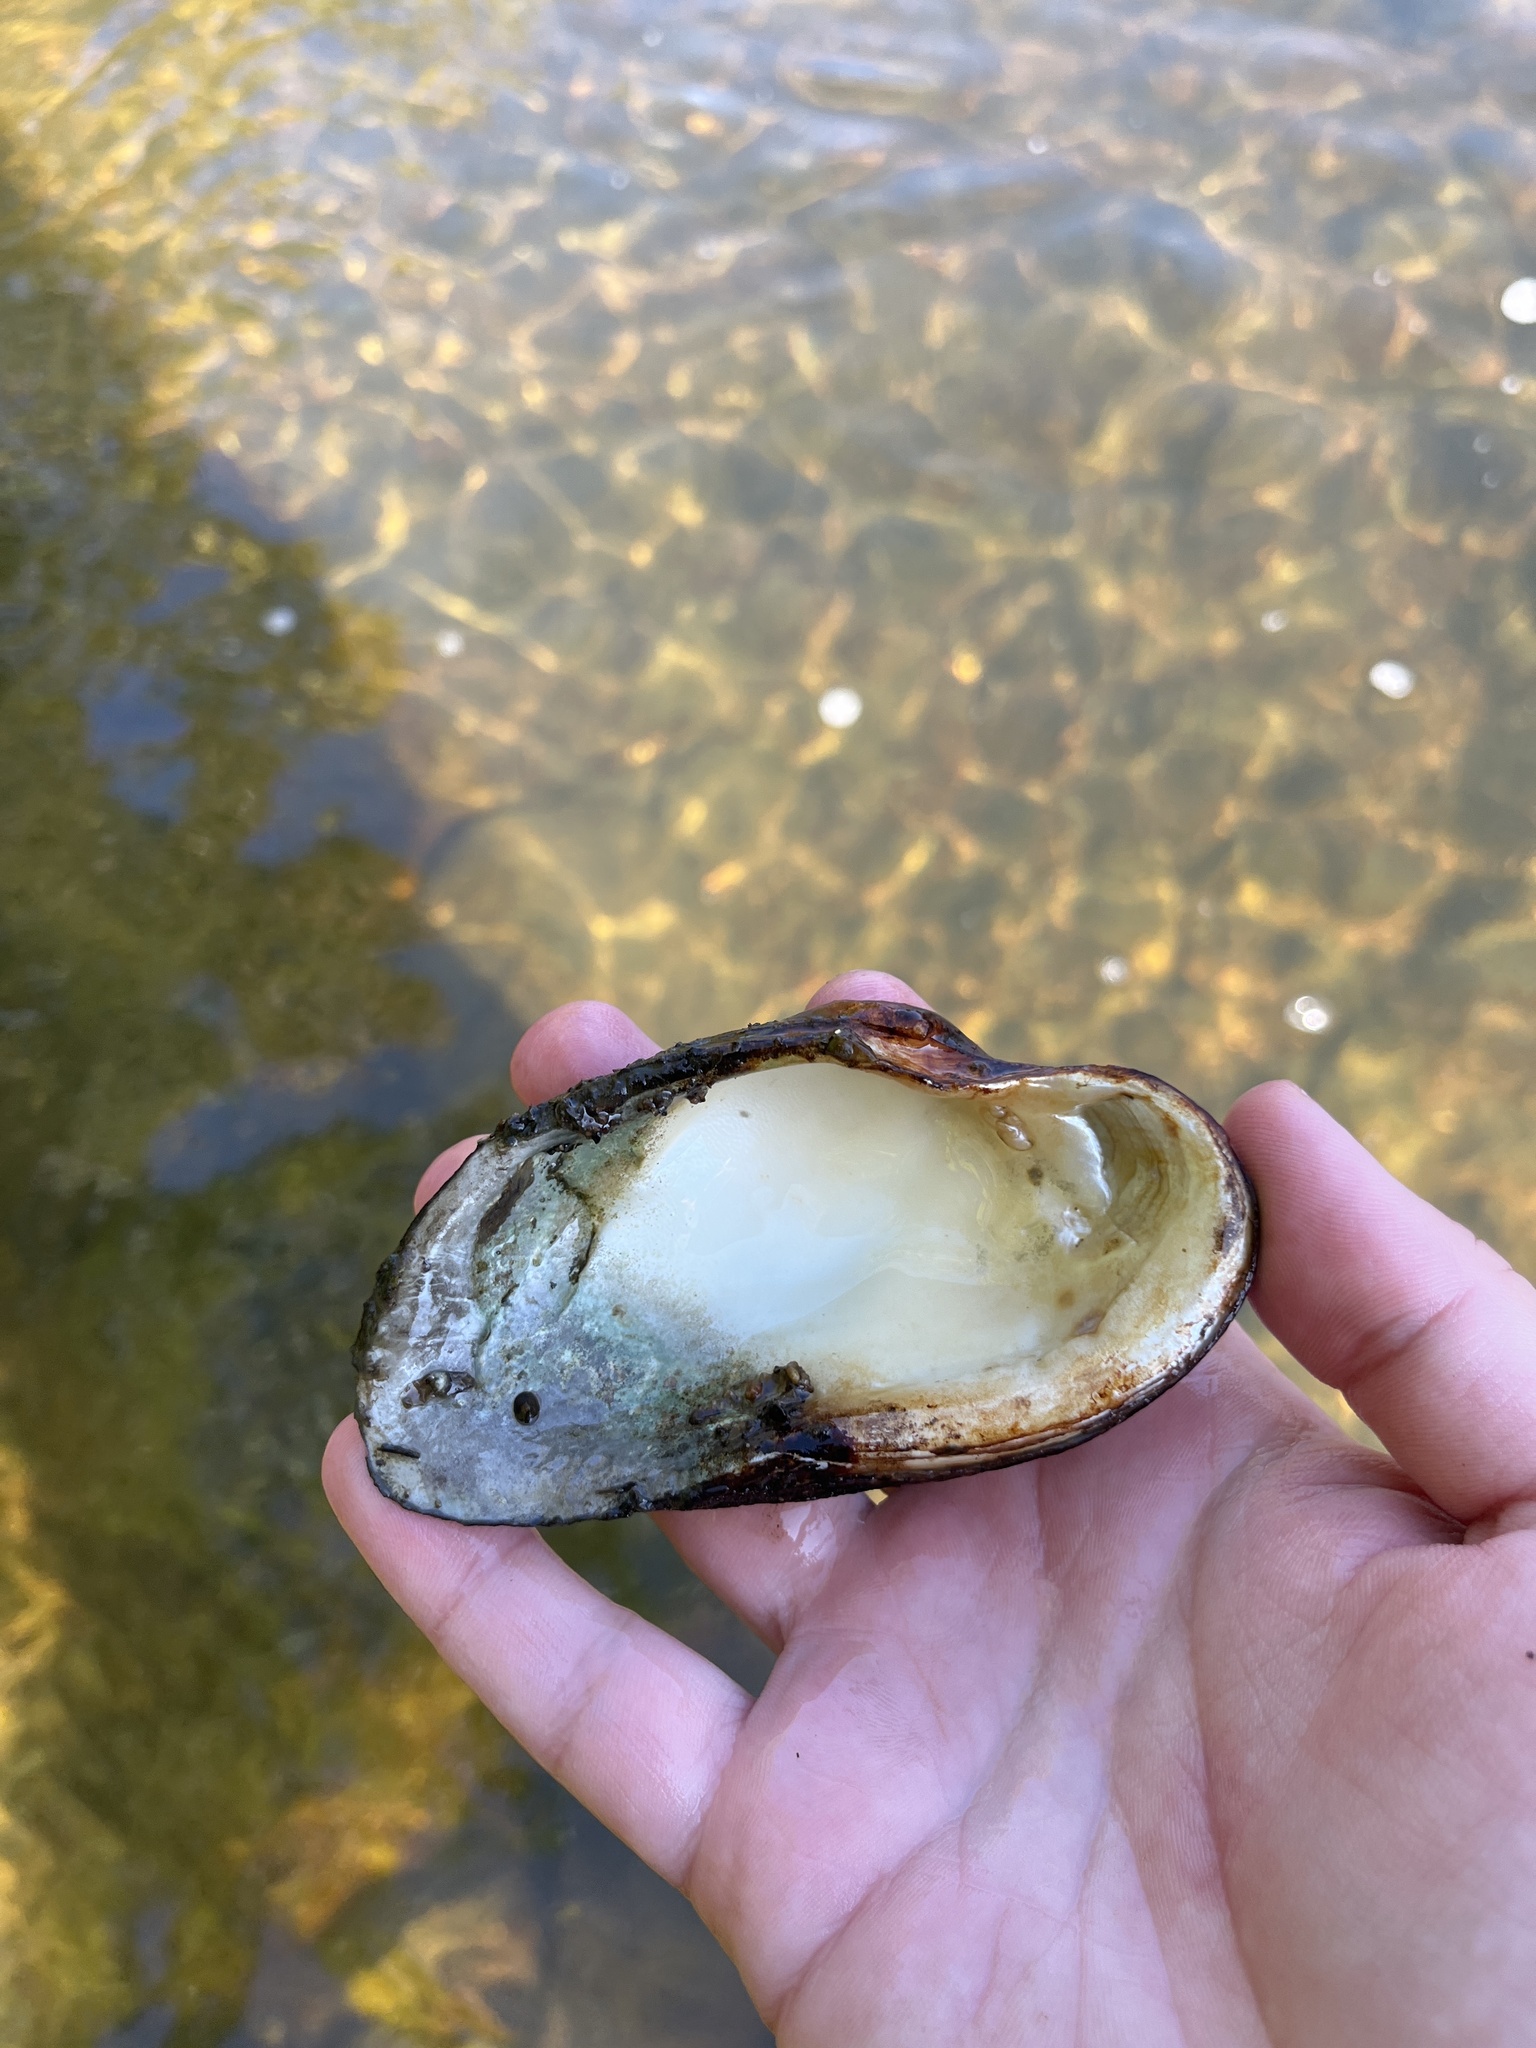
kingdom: Animalia
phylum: Mollusca
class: Bivalvia
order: Unionida
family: Unionidae
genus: Strophitus
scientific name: Strophitus undulatus
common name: Creeper
